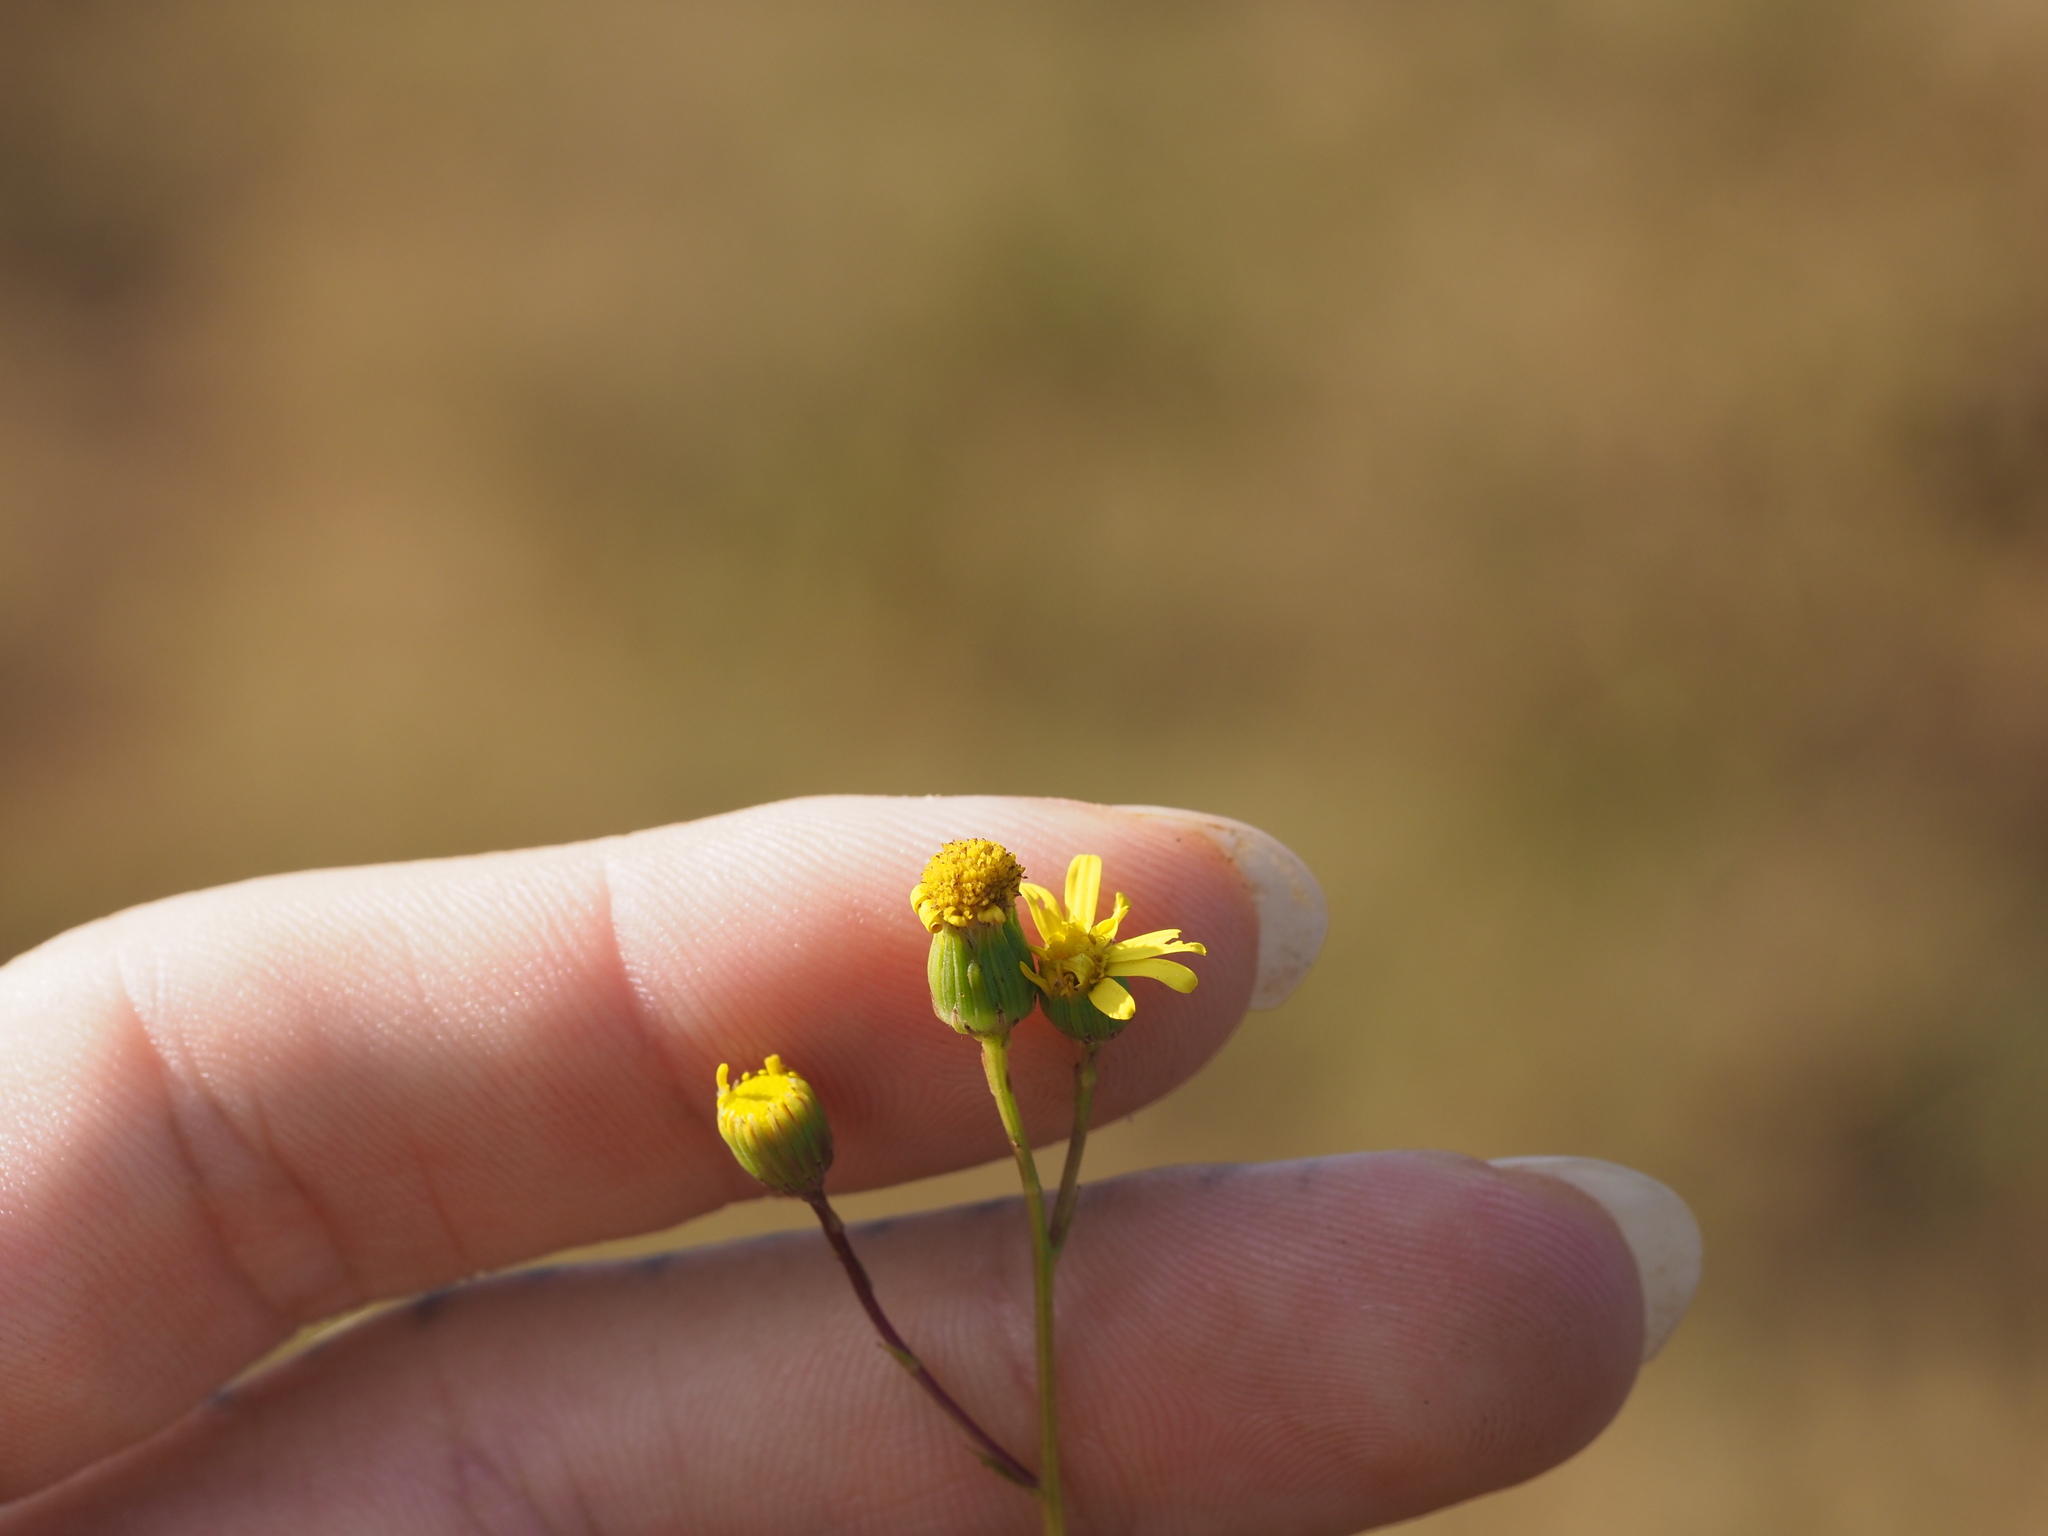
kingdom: Plantae
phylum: Tracheophyta
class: Magnoliopsida
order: Asterales
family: Asteraceae
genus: Senecio
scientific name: Senecio madagascariensis
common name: Madagascar ragwort
